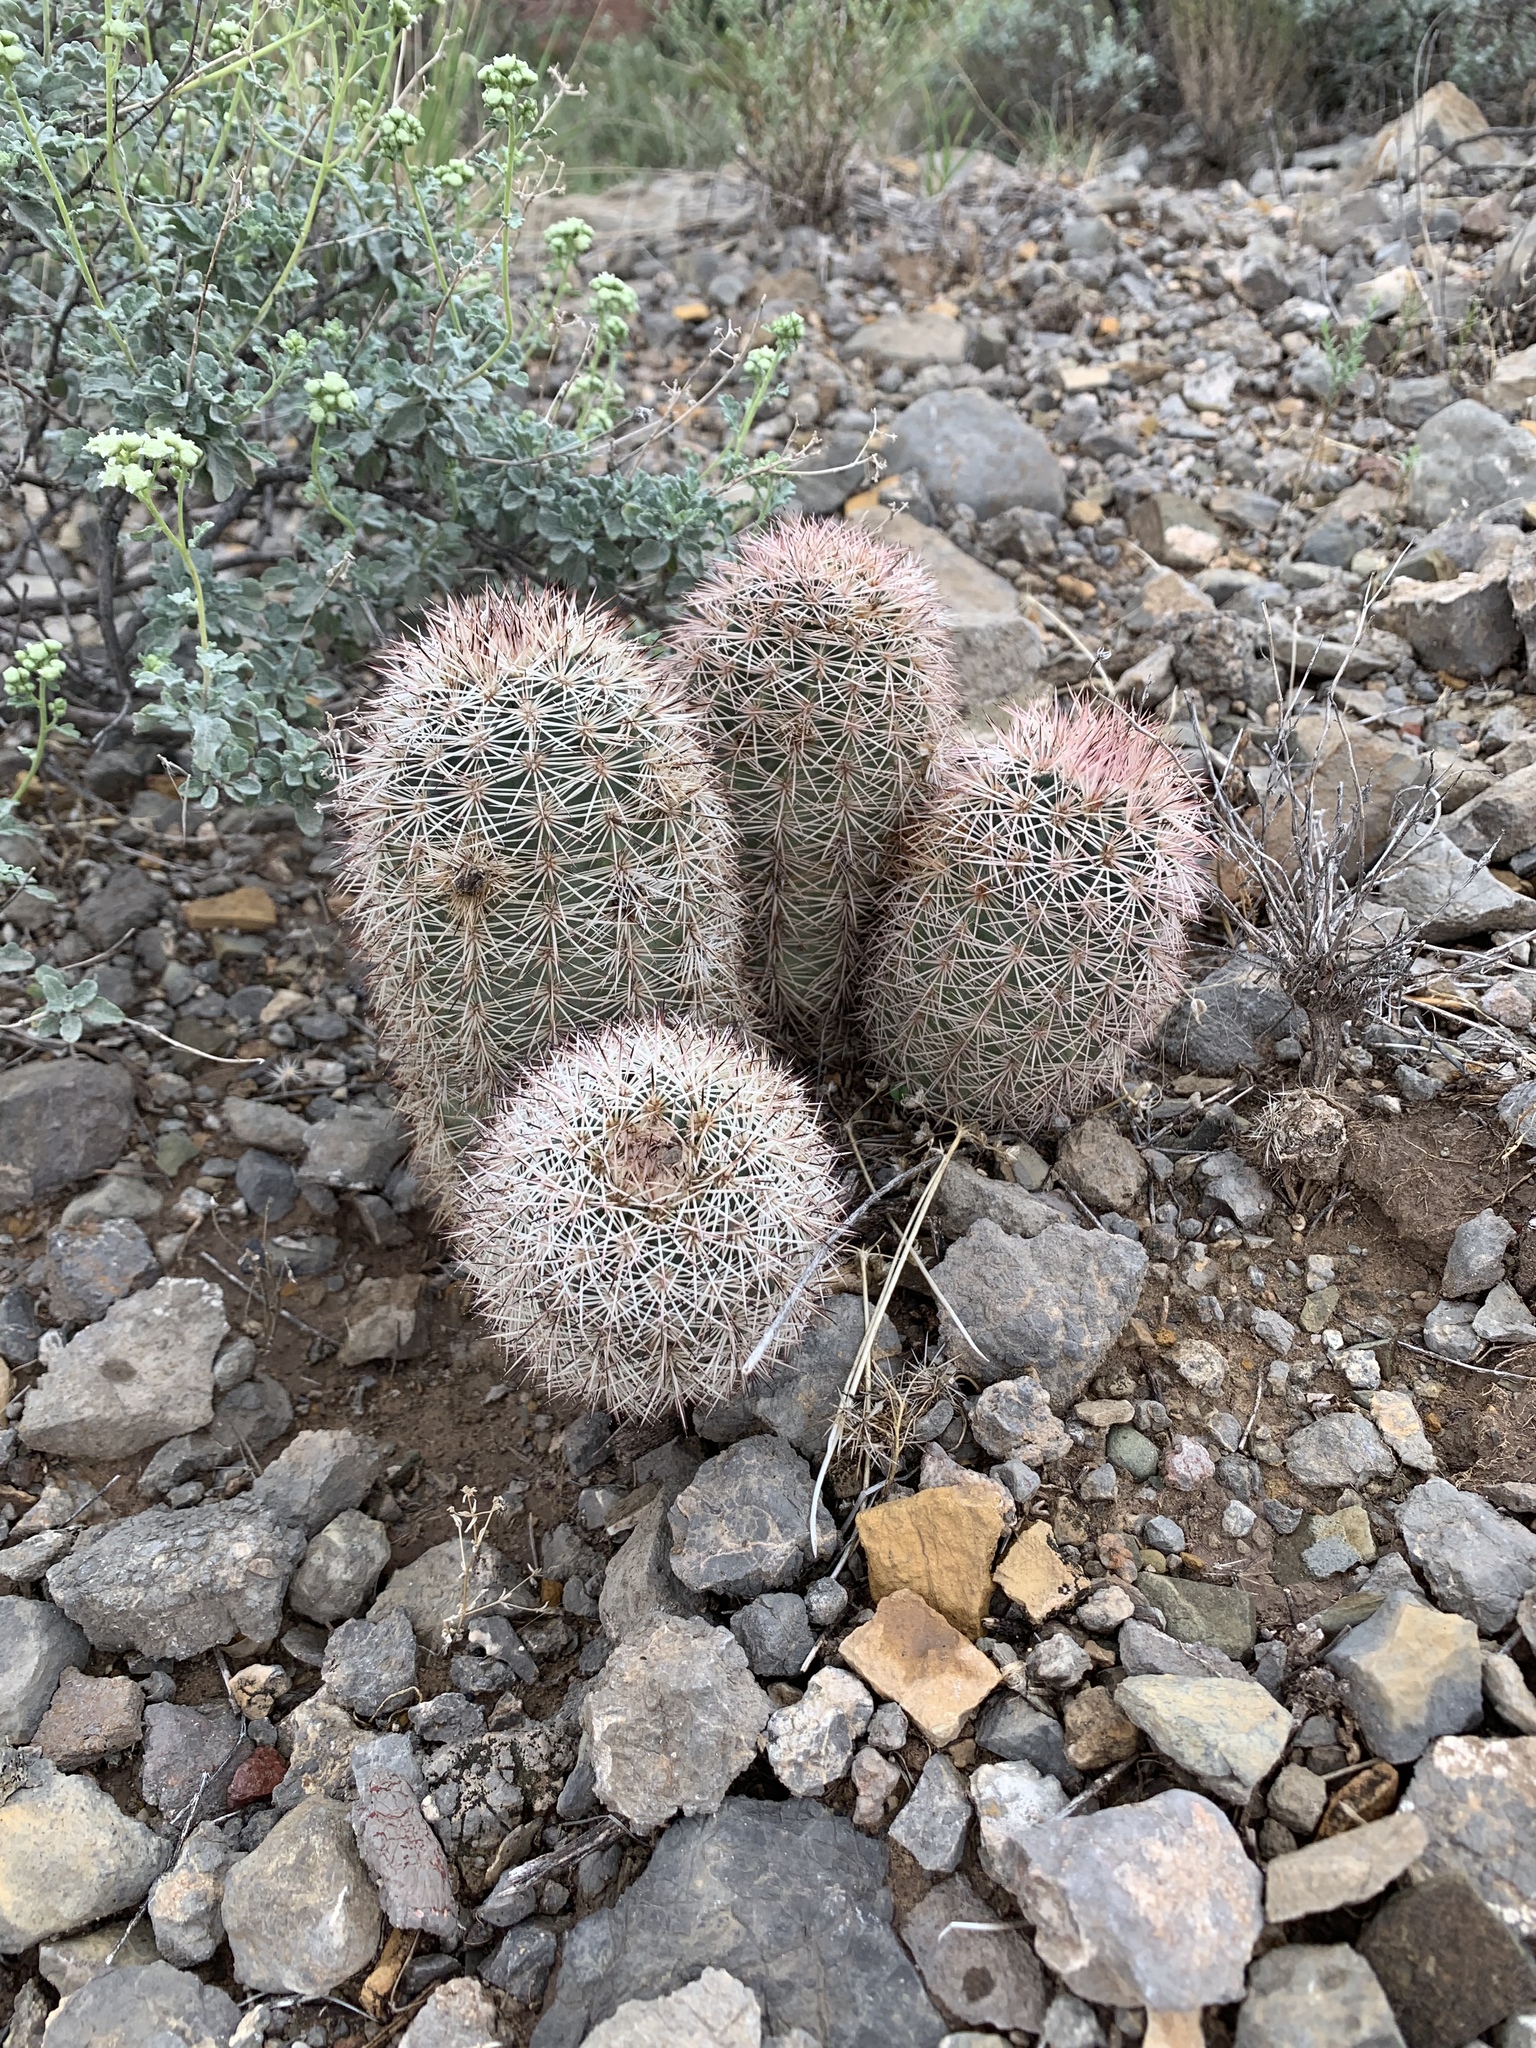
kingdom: Plantae
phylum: Tracheophyta
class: Magnoliopsida
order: Caryophyllales
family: Cactaceae
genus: Echinocereus
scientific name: Echinocereus dasyacanthus
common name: Spiny hedgehog cactus
